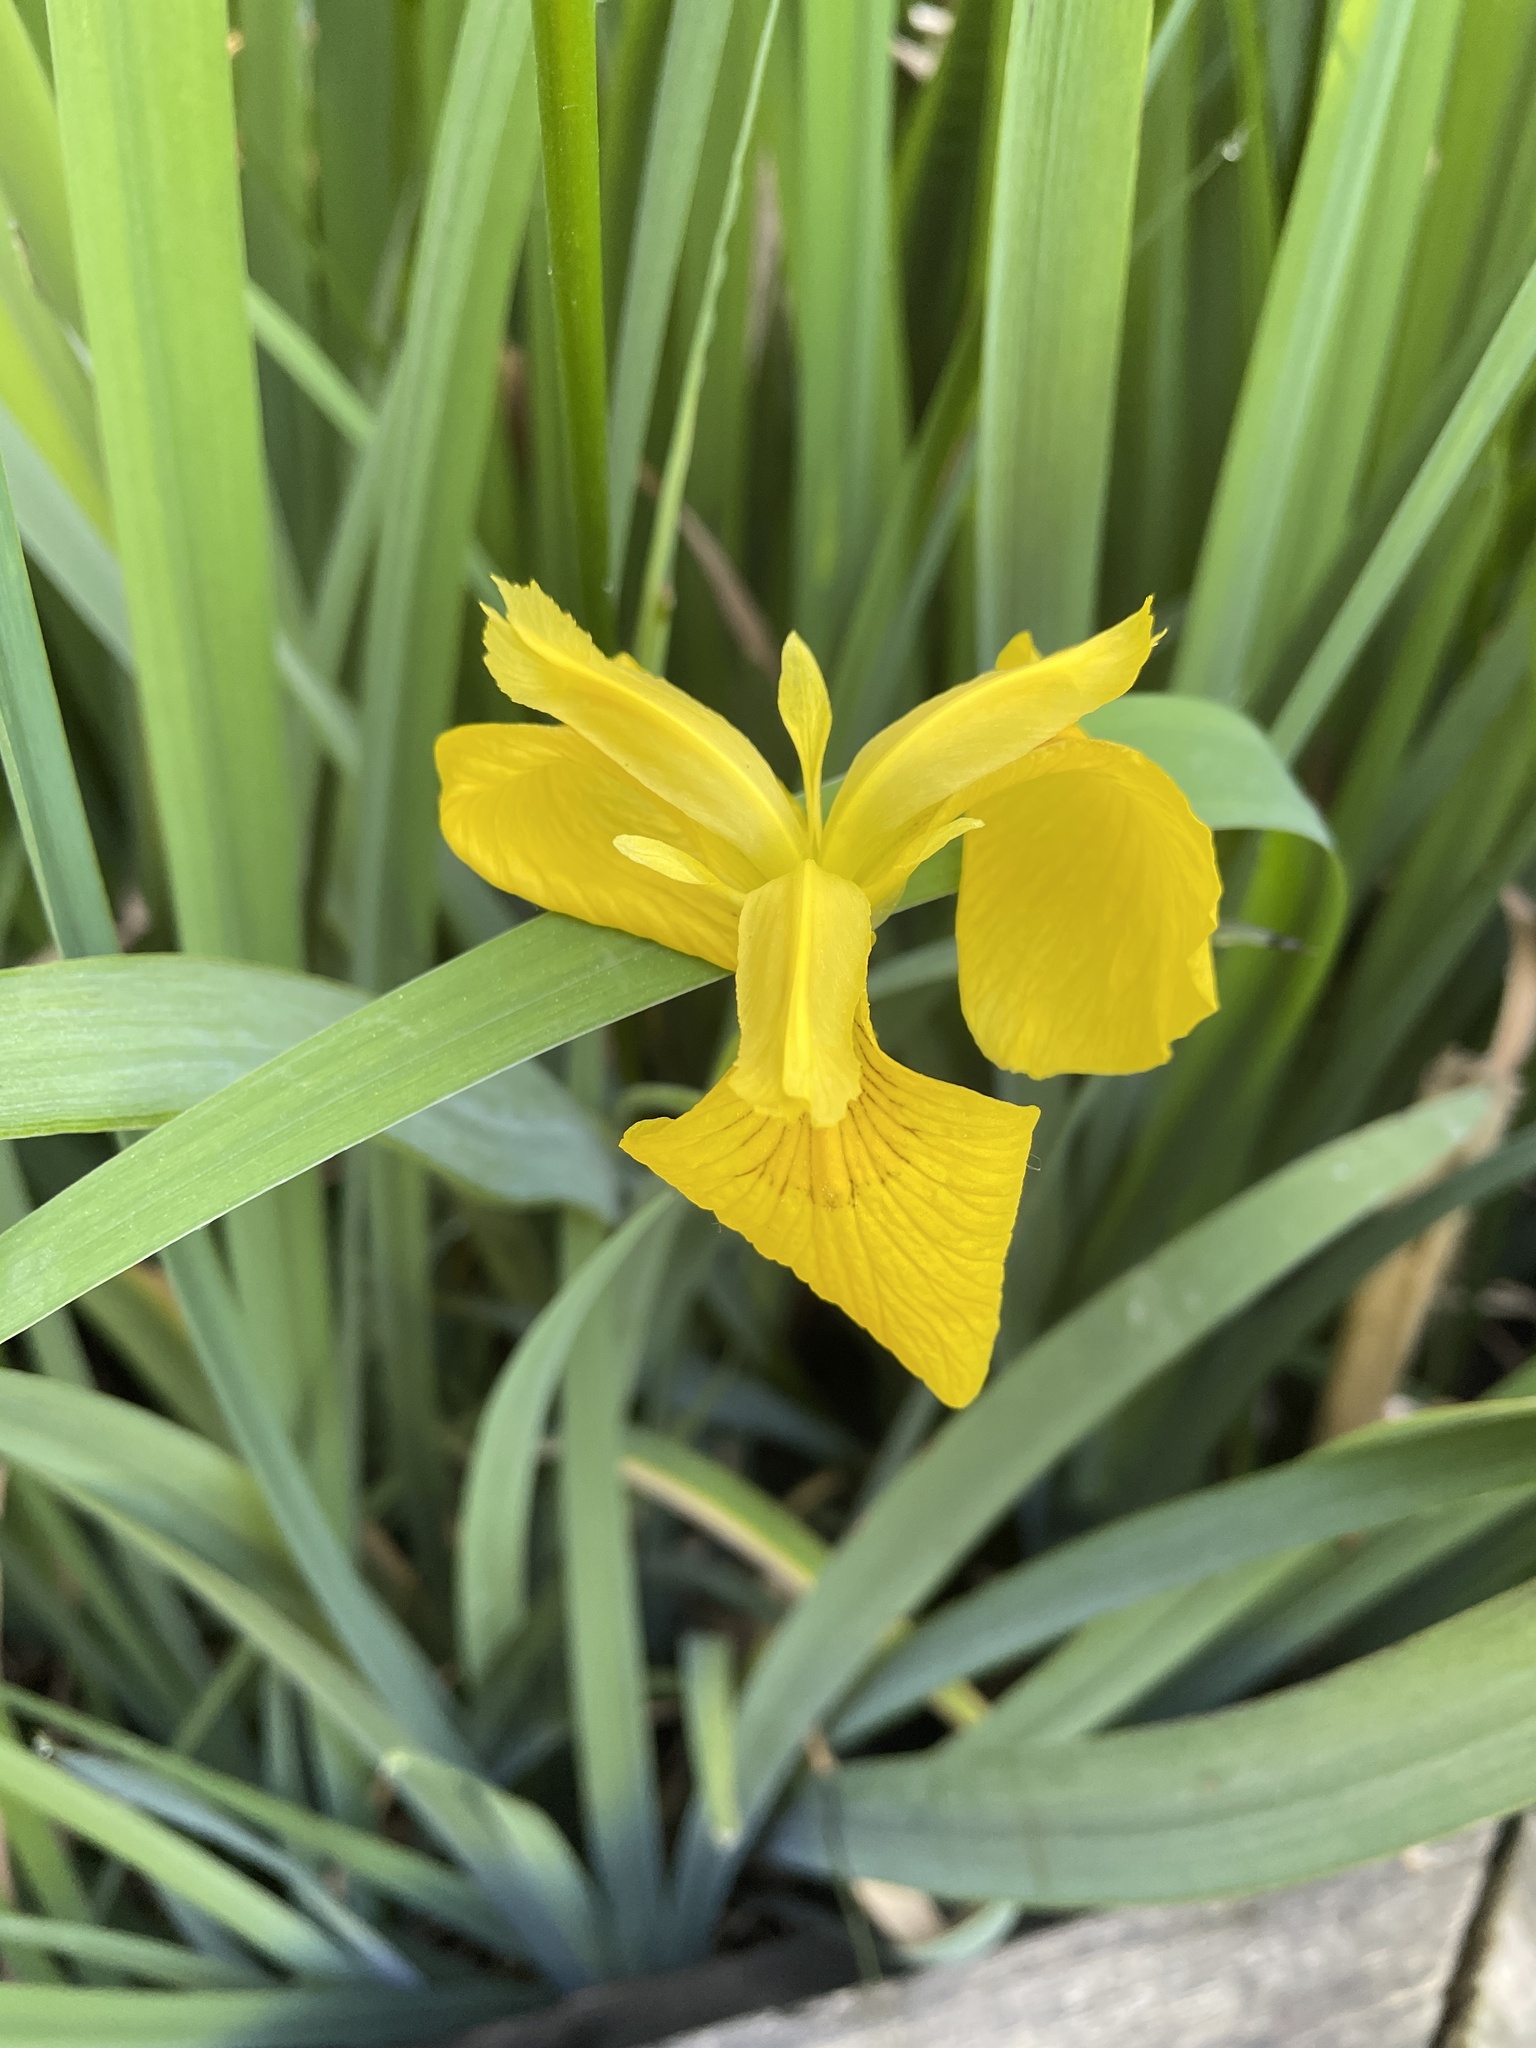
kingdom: Plantae
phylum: Tracheophyta
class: Liliopsida
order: Asparagales
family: Iridaceae
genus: Iris
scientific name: Iris pseudacorus
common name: Yellow flag
